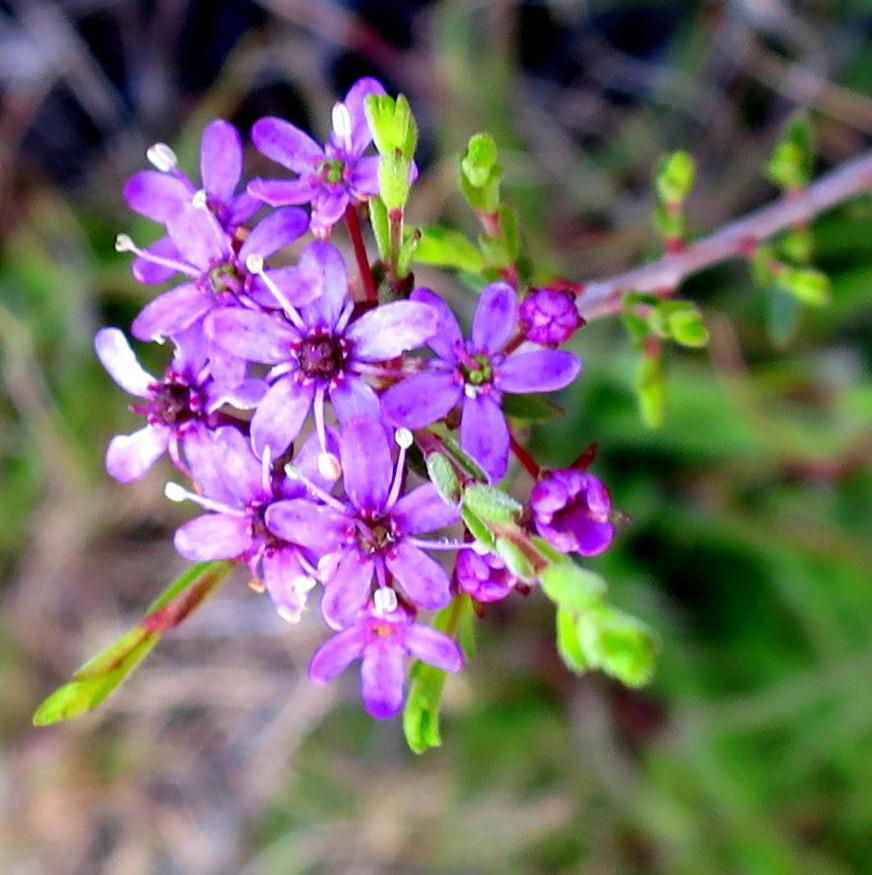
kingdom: Plantae
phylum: Tracheophyta
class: Magnoliopsida
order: Sapindales
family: Rutaceae
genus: Agathosma
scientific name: Agathosma purpurea
